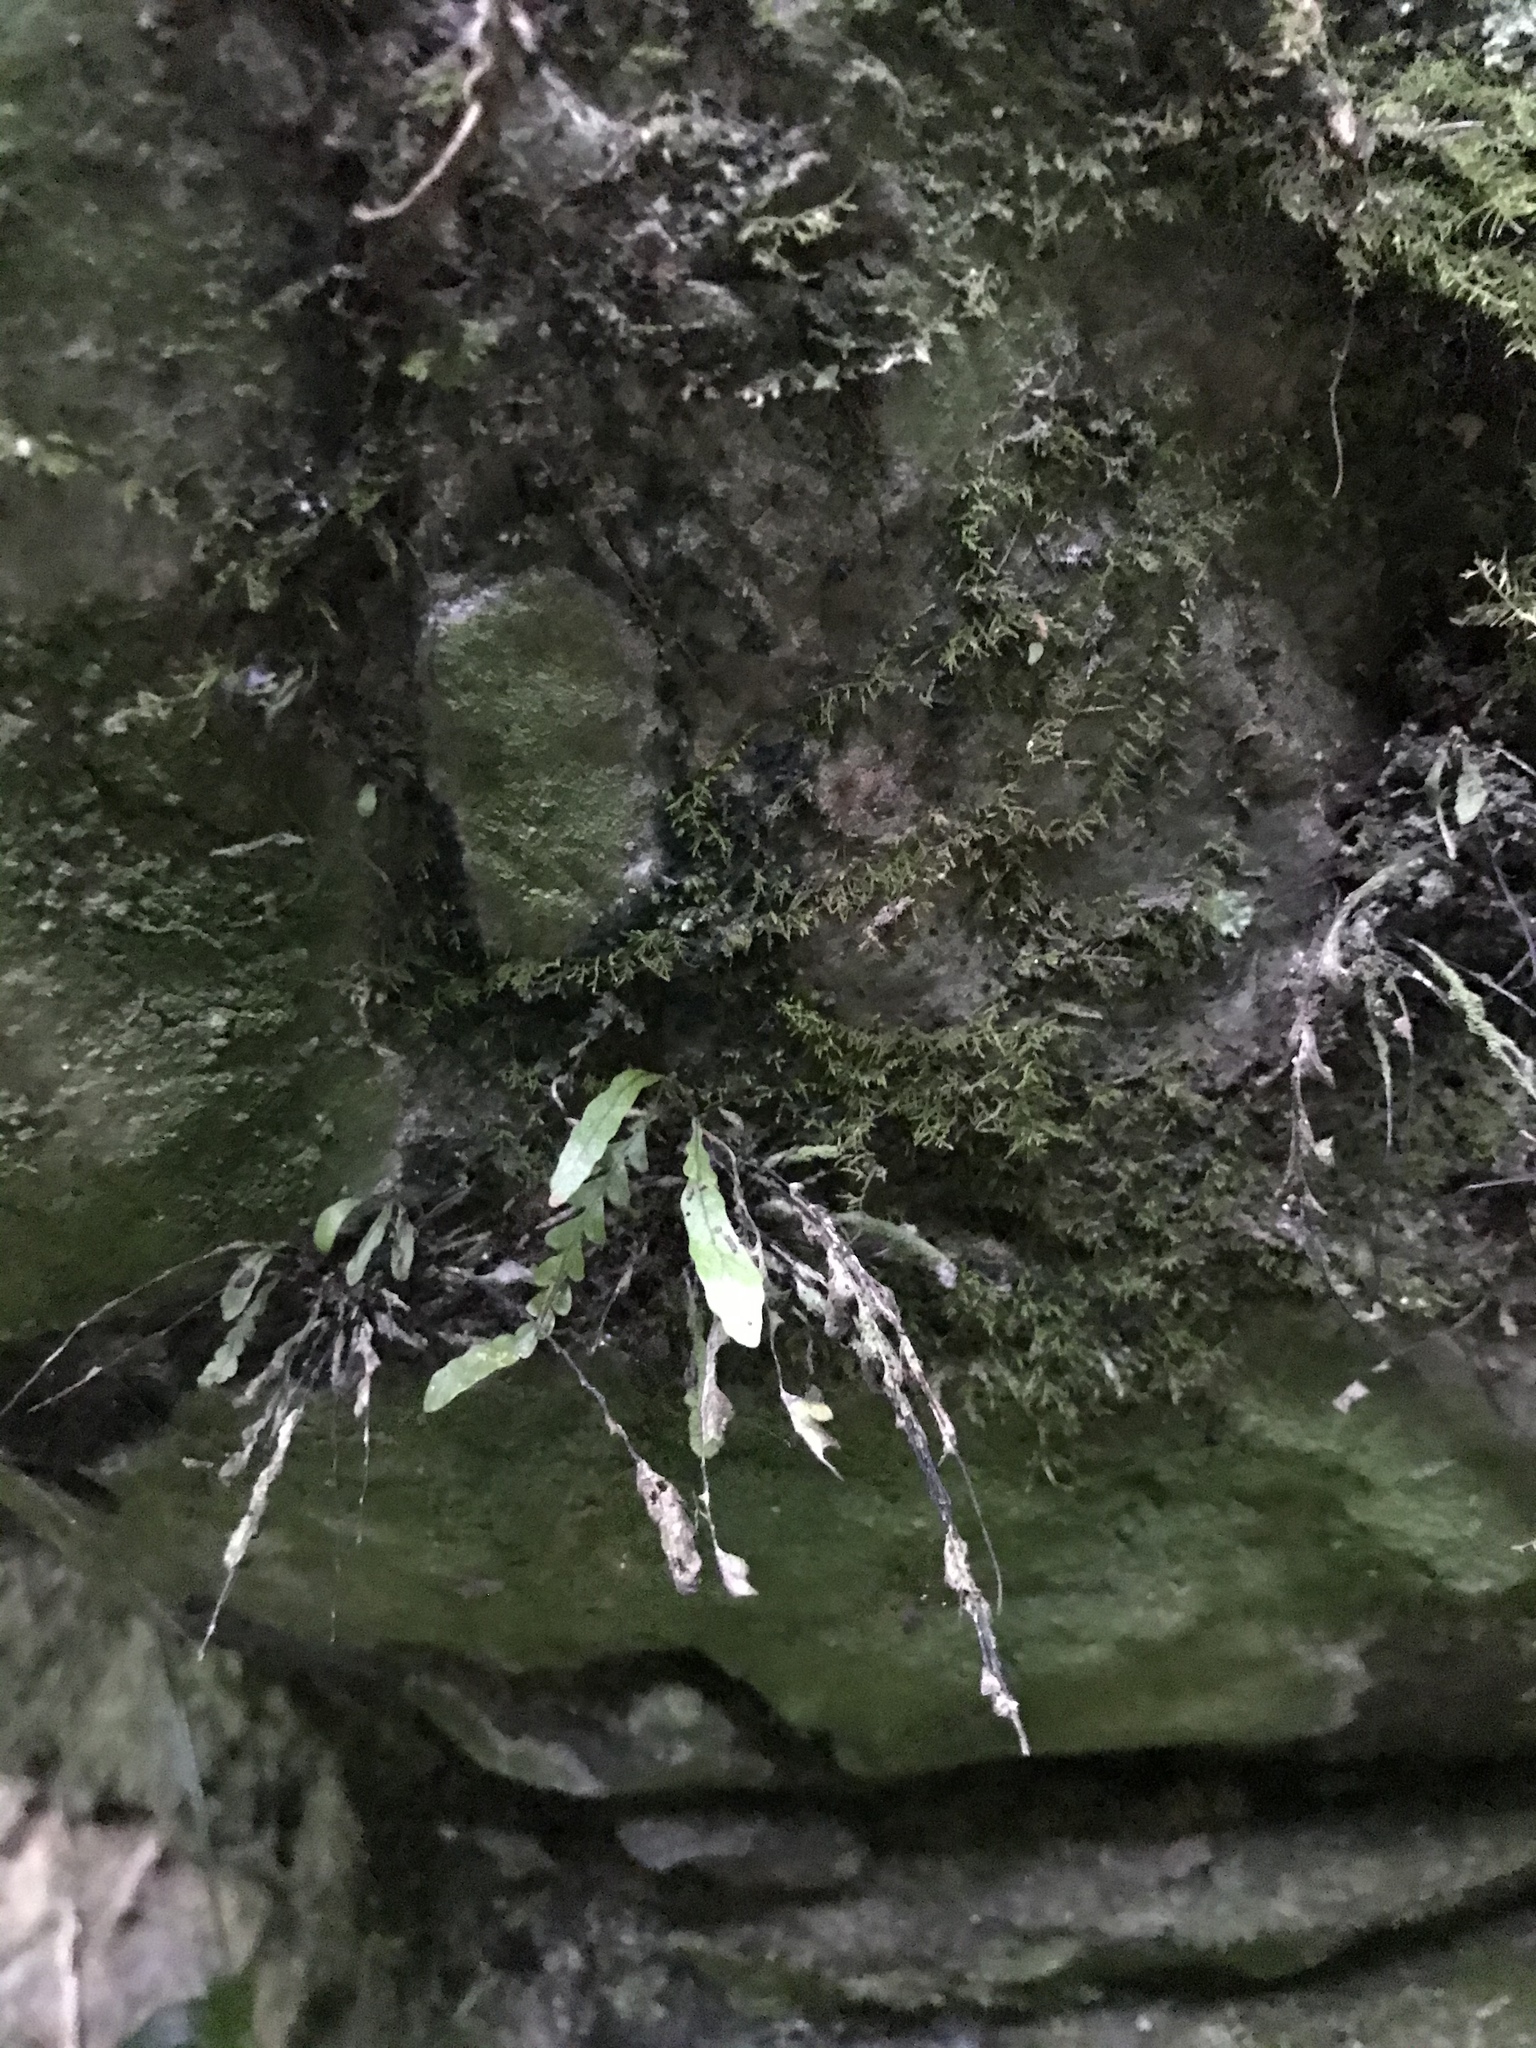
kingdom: Plantae
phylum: Tracheophyta
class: Polypodiopsida
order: Polypodiales
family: Polypodiaceae
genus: Notogrammitis
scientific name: Notogrammitis heterophylla
